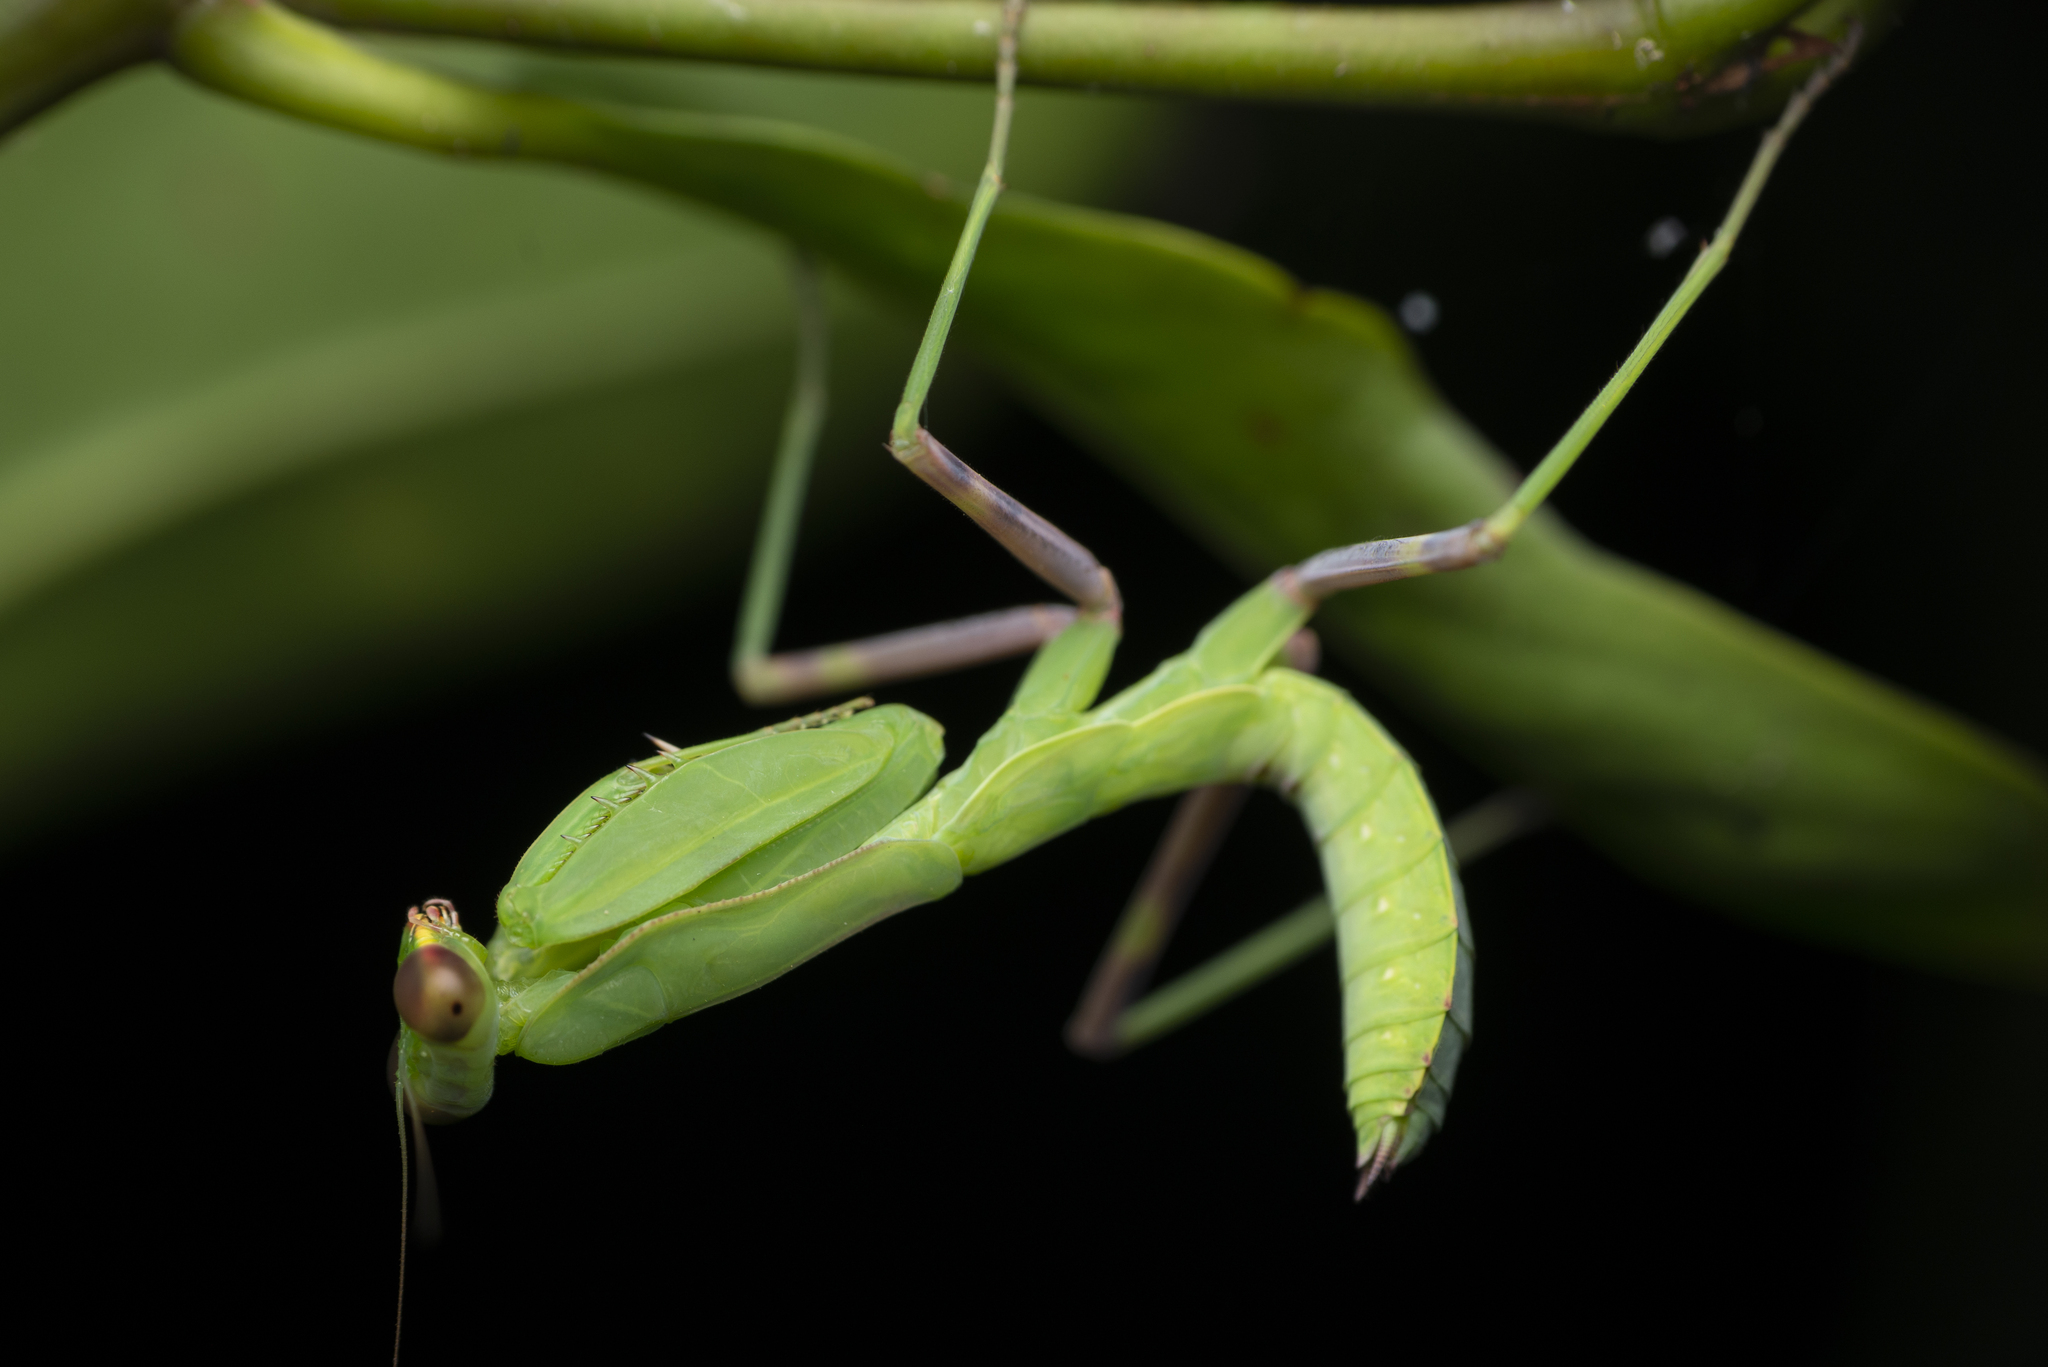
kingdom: Animalia
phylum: Arthropoda
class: Insecta
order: Mantodea
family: Mantidae
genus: Hierodula
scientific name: Hierodula patellifera
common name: Asian mantis
